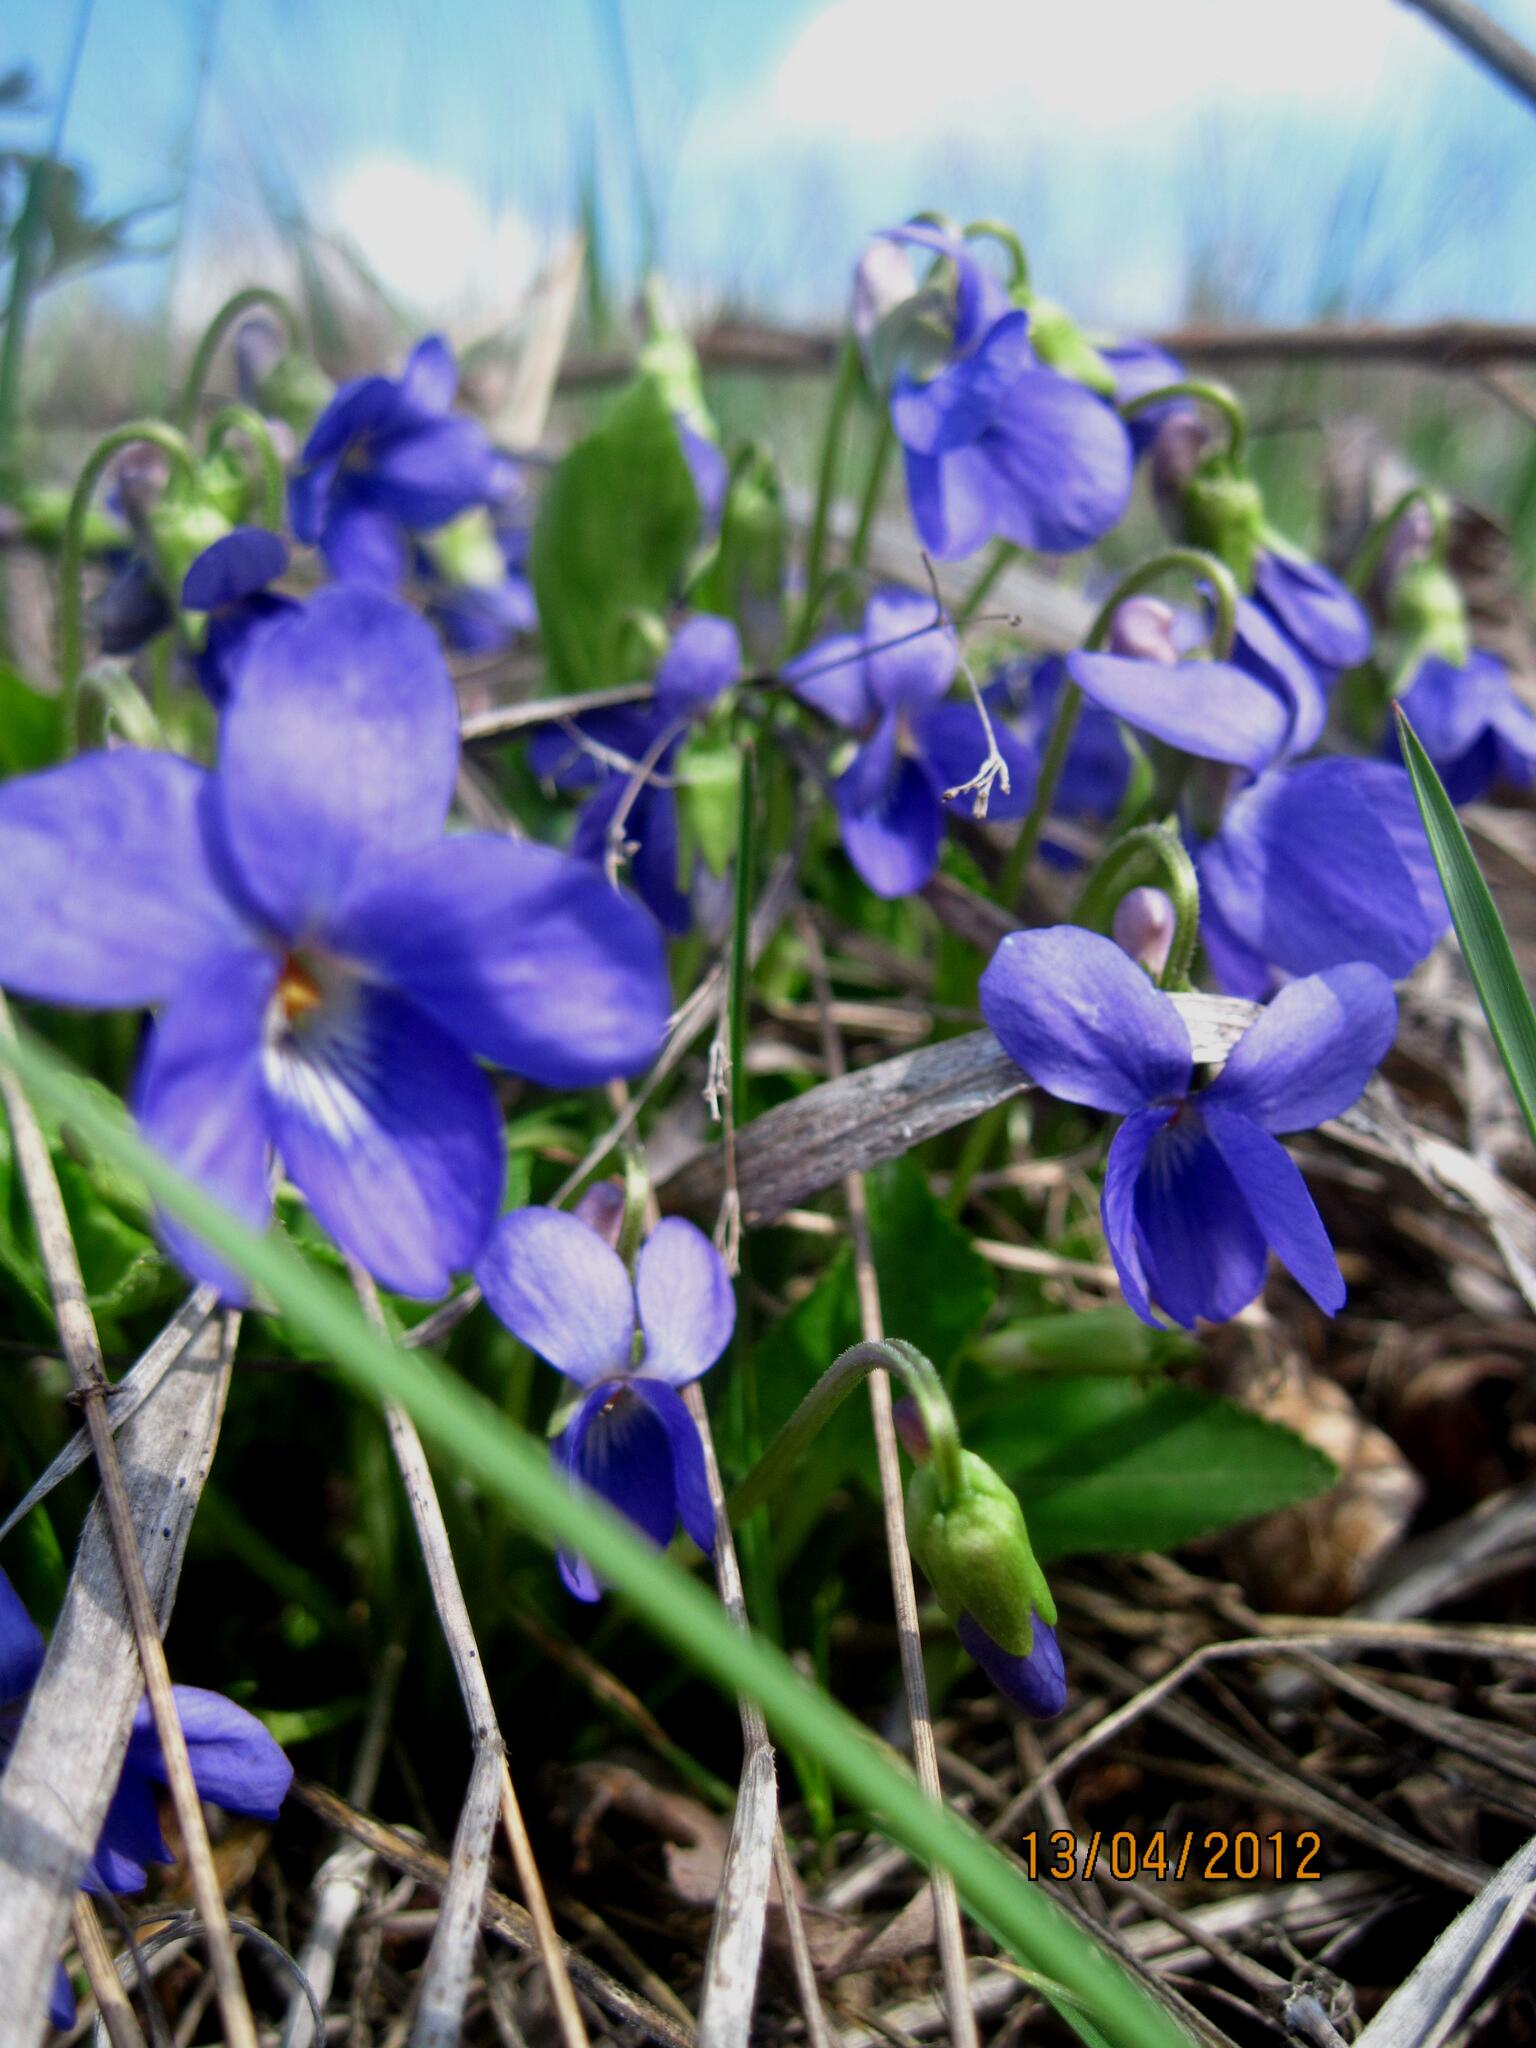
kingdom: Plantae
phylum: Tracheophyta
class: Magnoliopsida
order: Malpighiales
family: Violaceae
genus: Viola
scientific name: Viola ambigua
